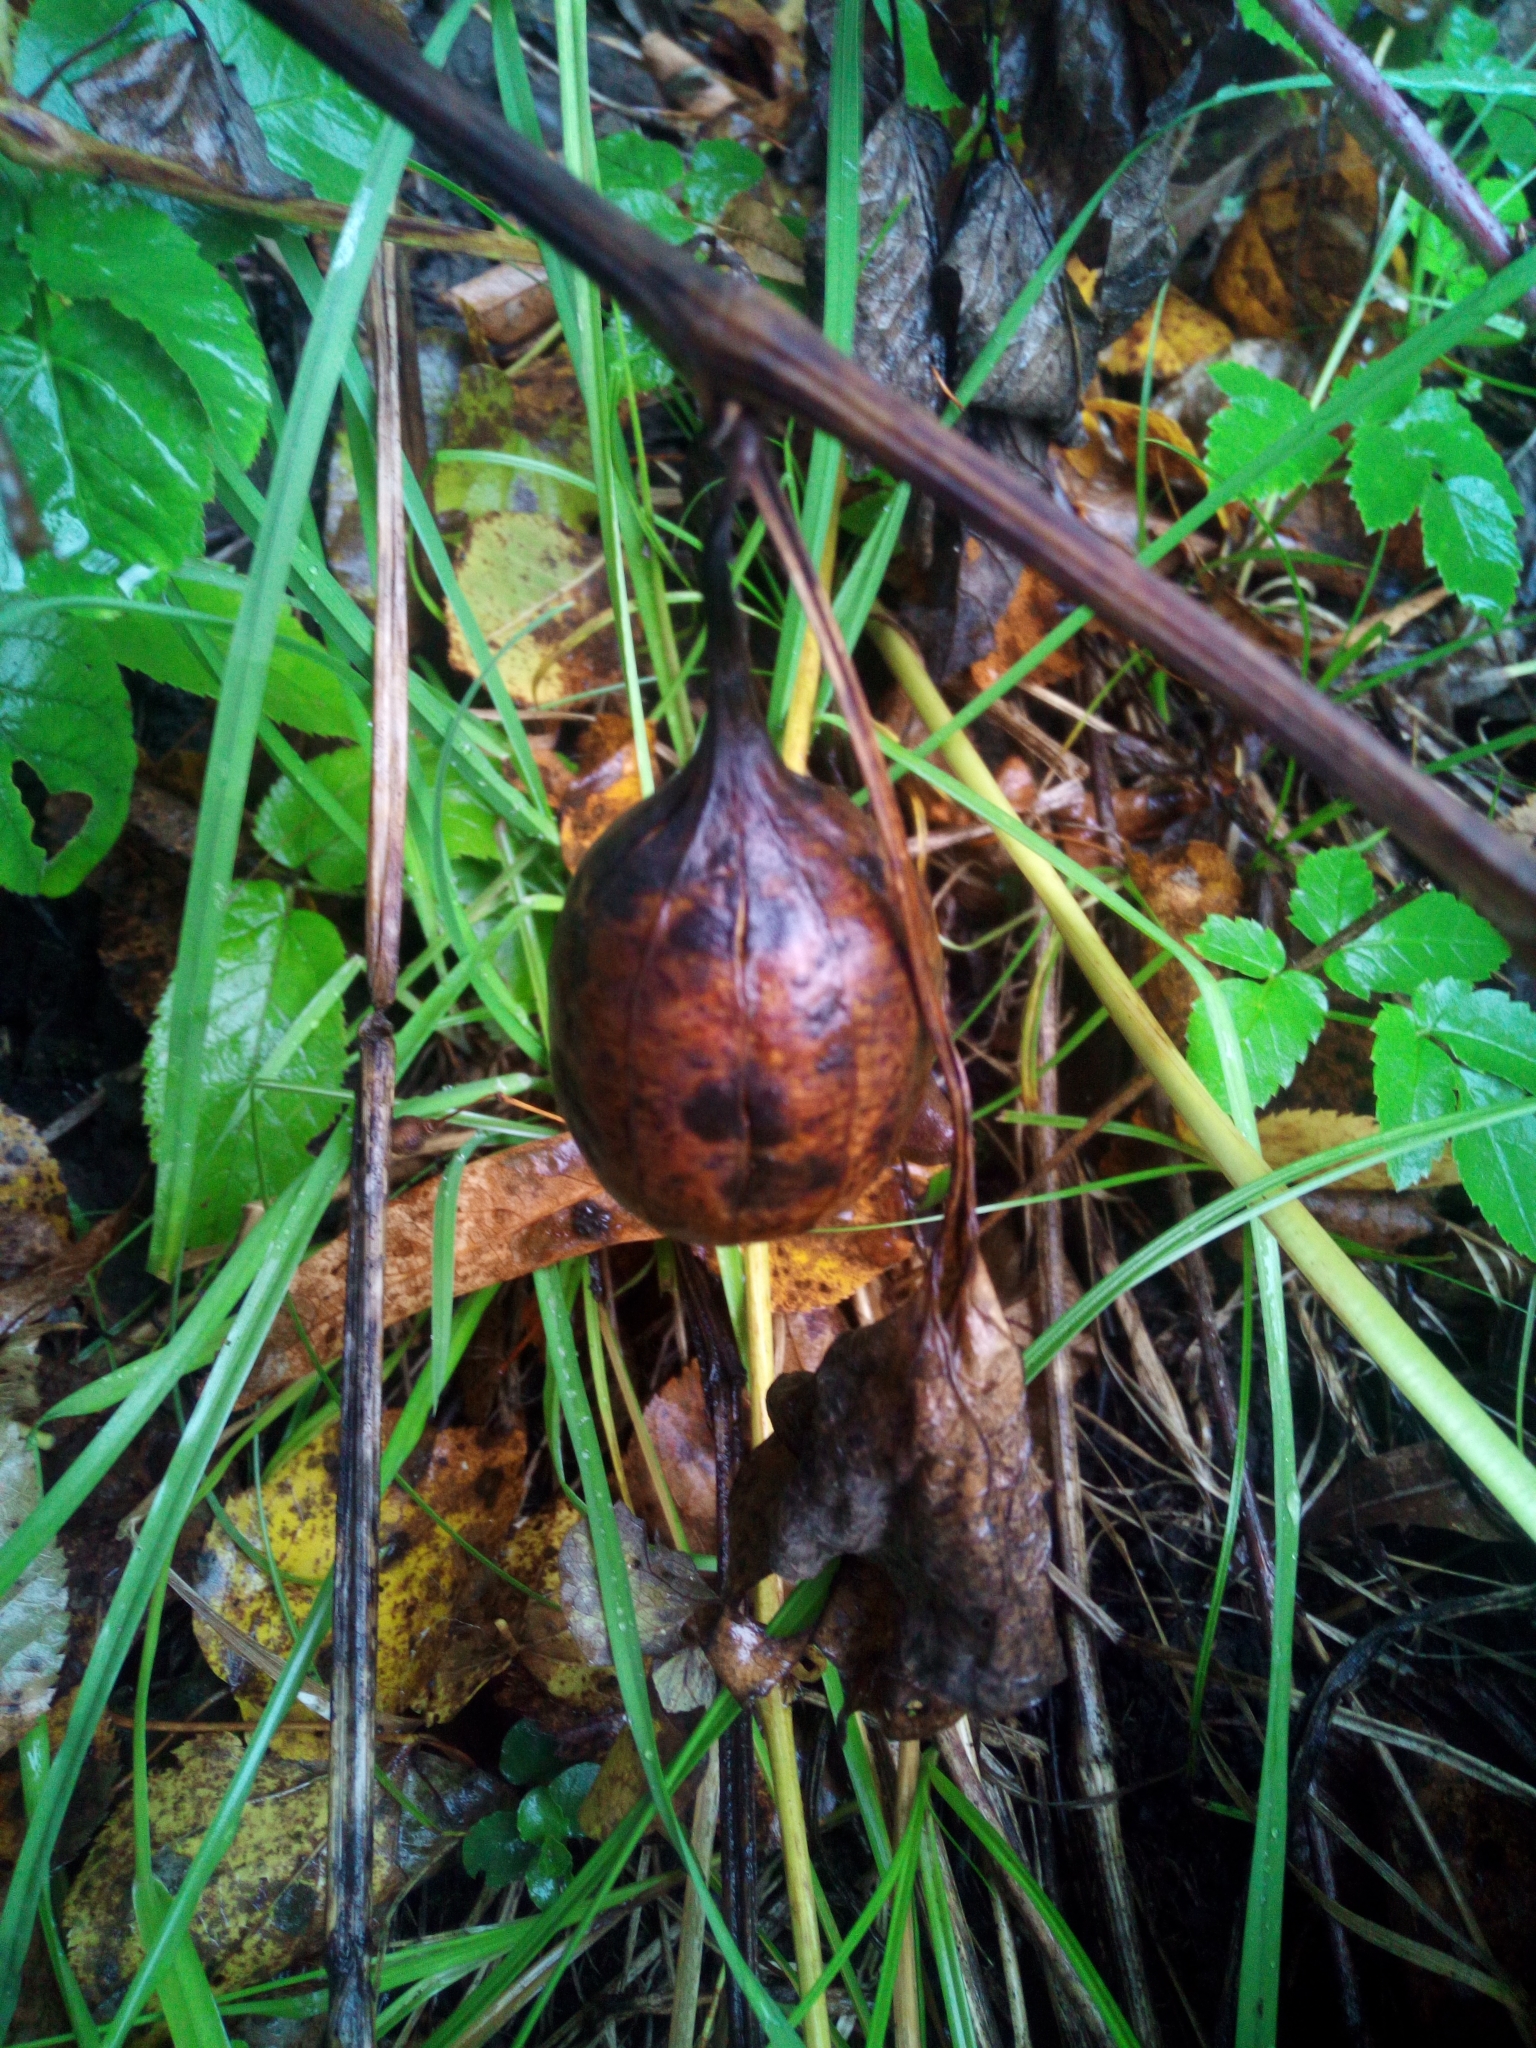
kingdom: Plantae
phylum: Tracheophyta
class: Magnoliopsida
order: Piperales
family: Aristolochiaceae
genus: Aristolochia
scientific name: Aristolochia clematitis
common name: Birthwort
